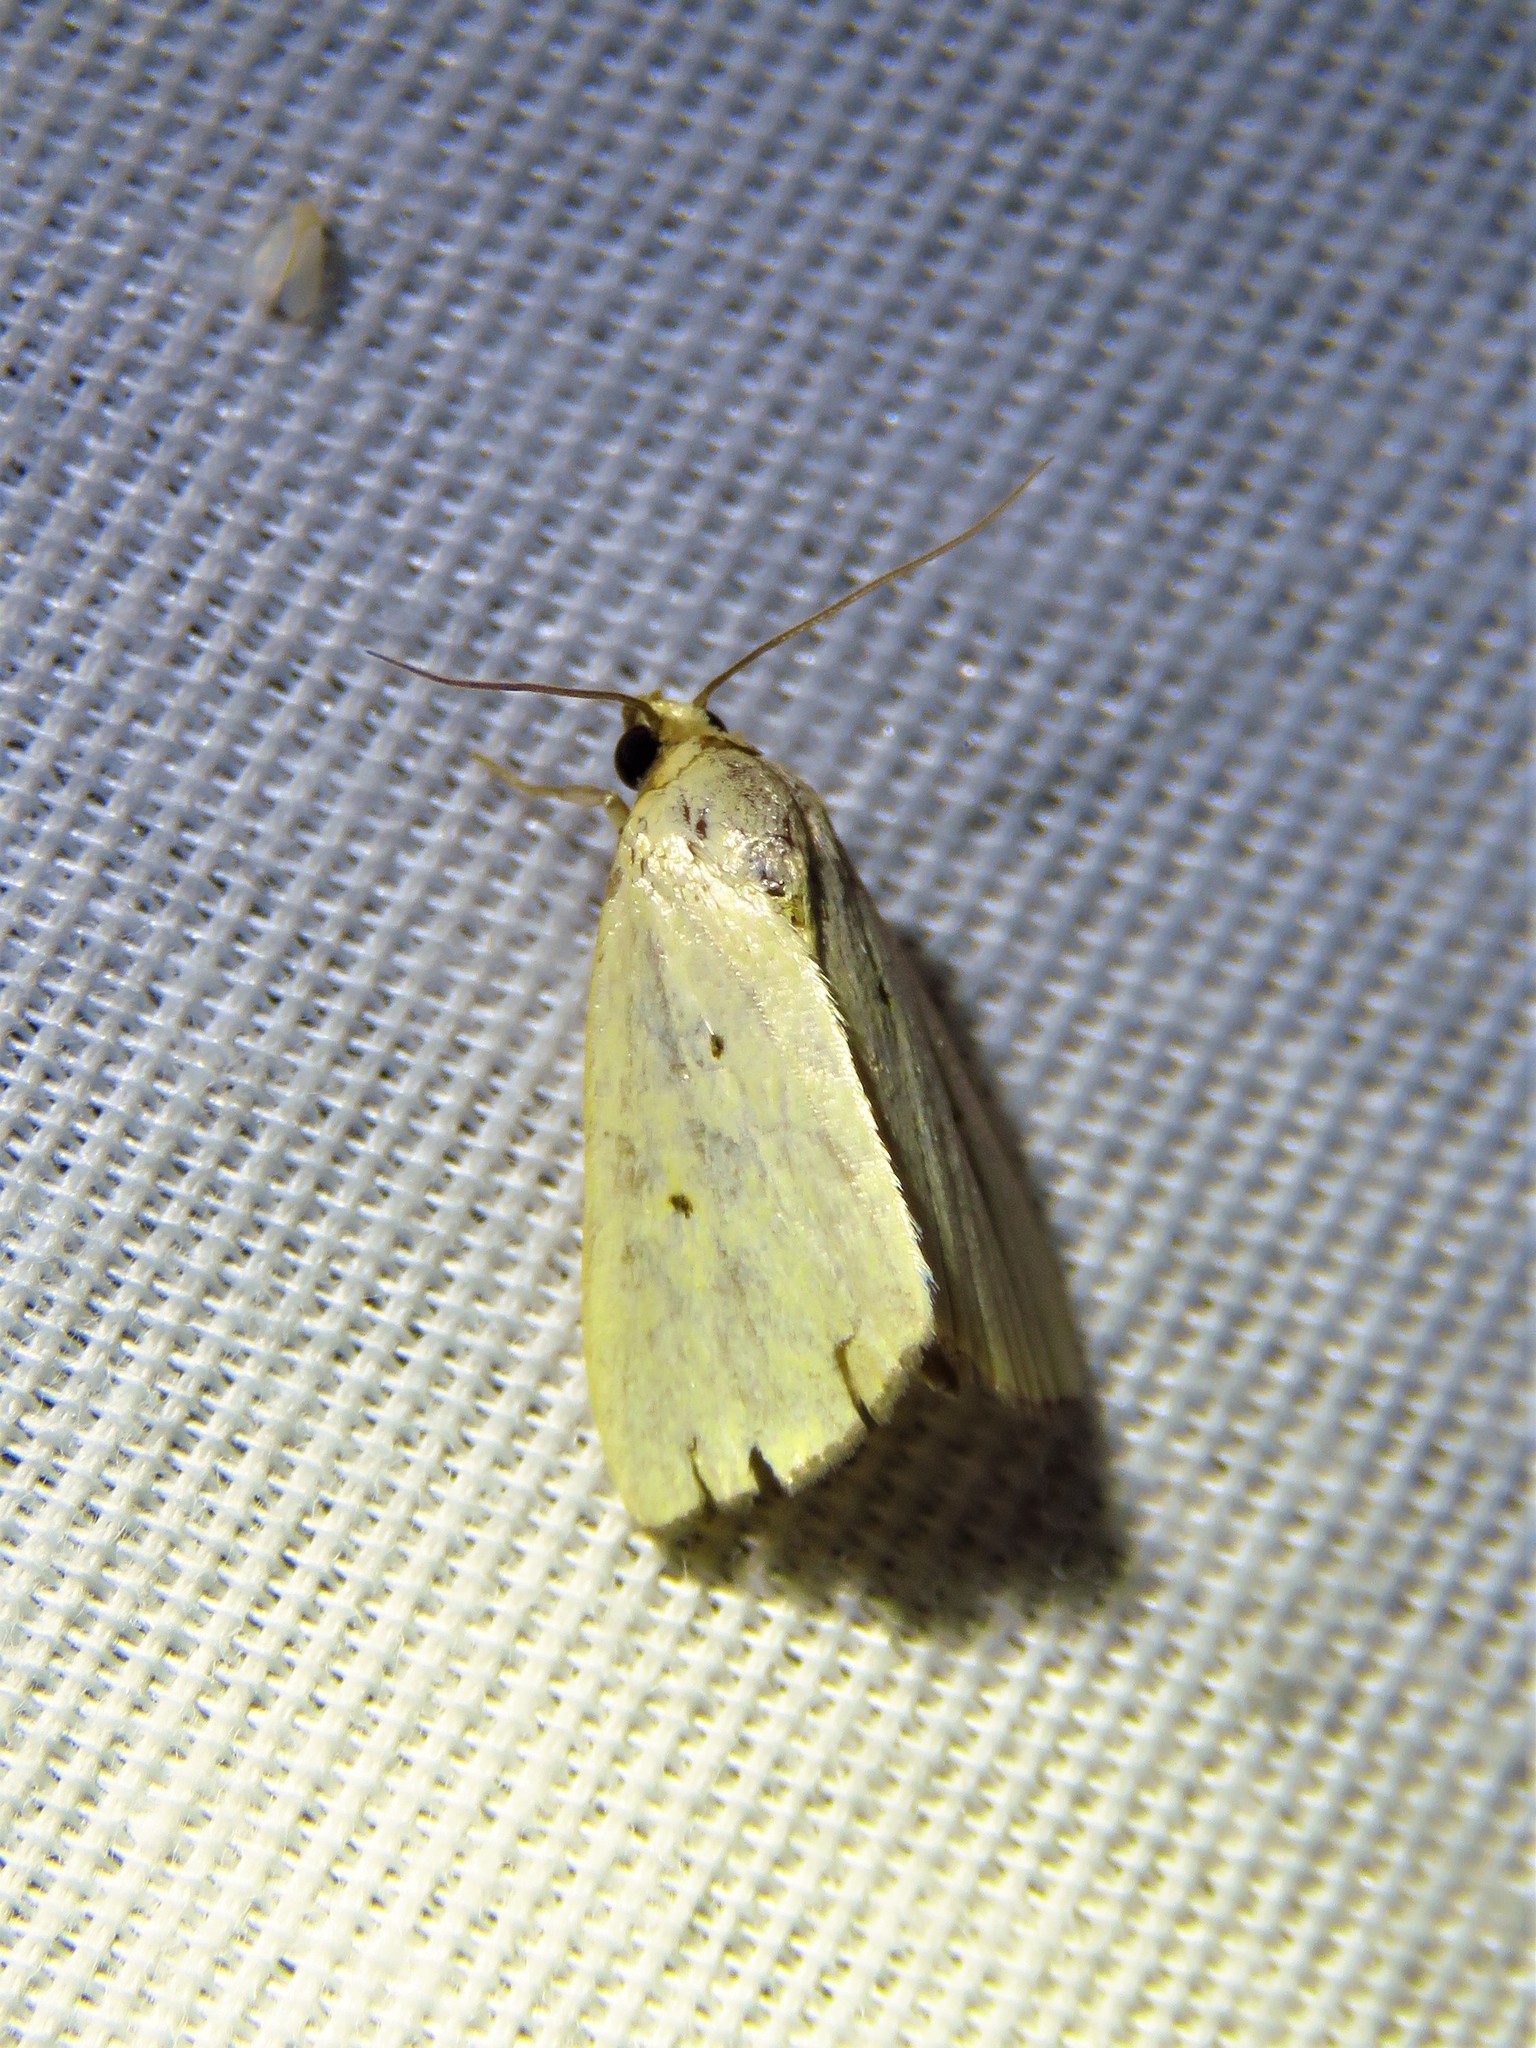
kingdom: Animalia
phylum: Arthropoda
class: Insecta
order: Lepidoptera
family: Noctuidae
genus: Marimatha
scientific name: Marimatha nigrofimbria
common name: Black-bordered lemon moth
